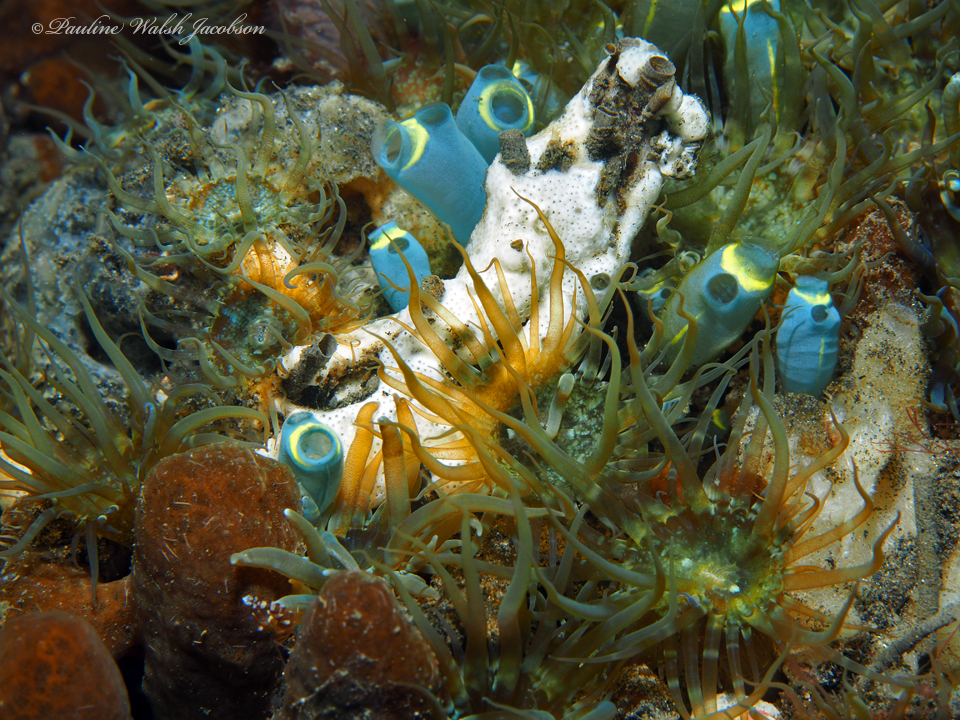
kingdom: Animalia
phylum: Chordata
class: Ascidiacea
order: Aplousobranchia
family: Clavelinidae
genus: Clavelina
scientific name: Clavelina cyclus
